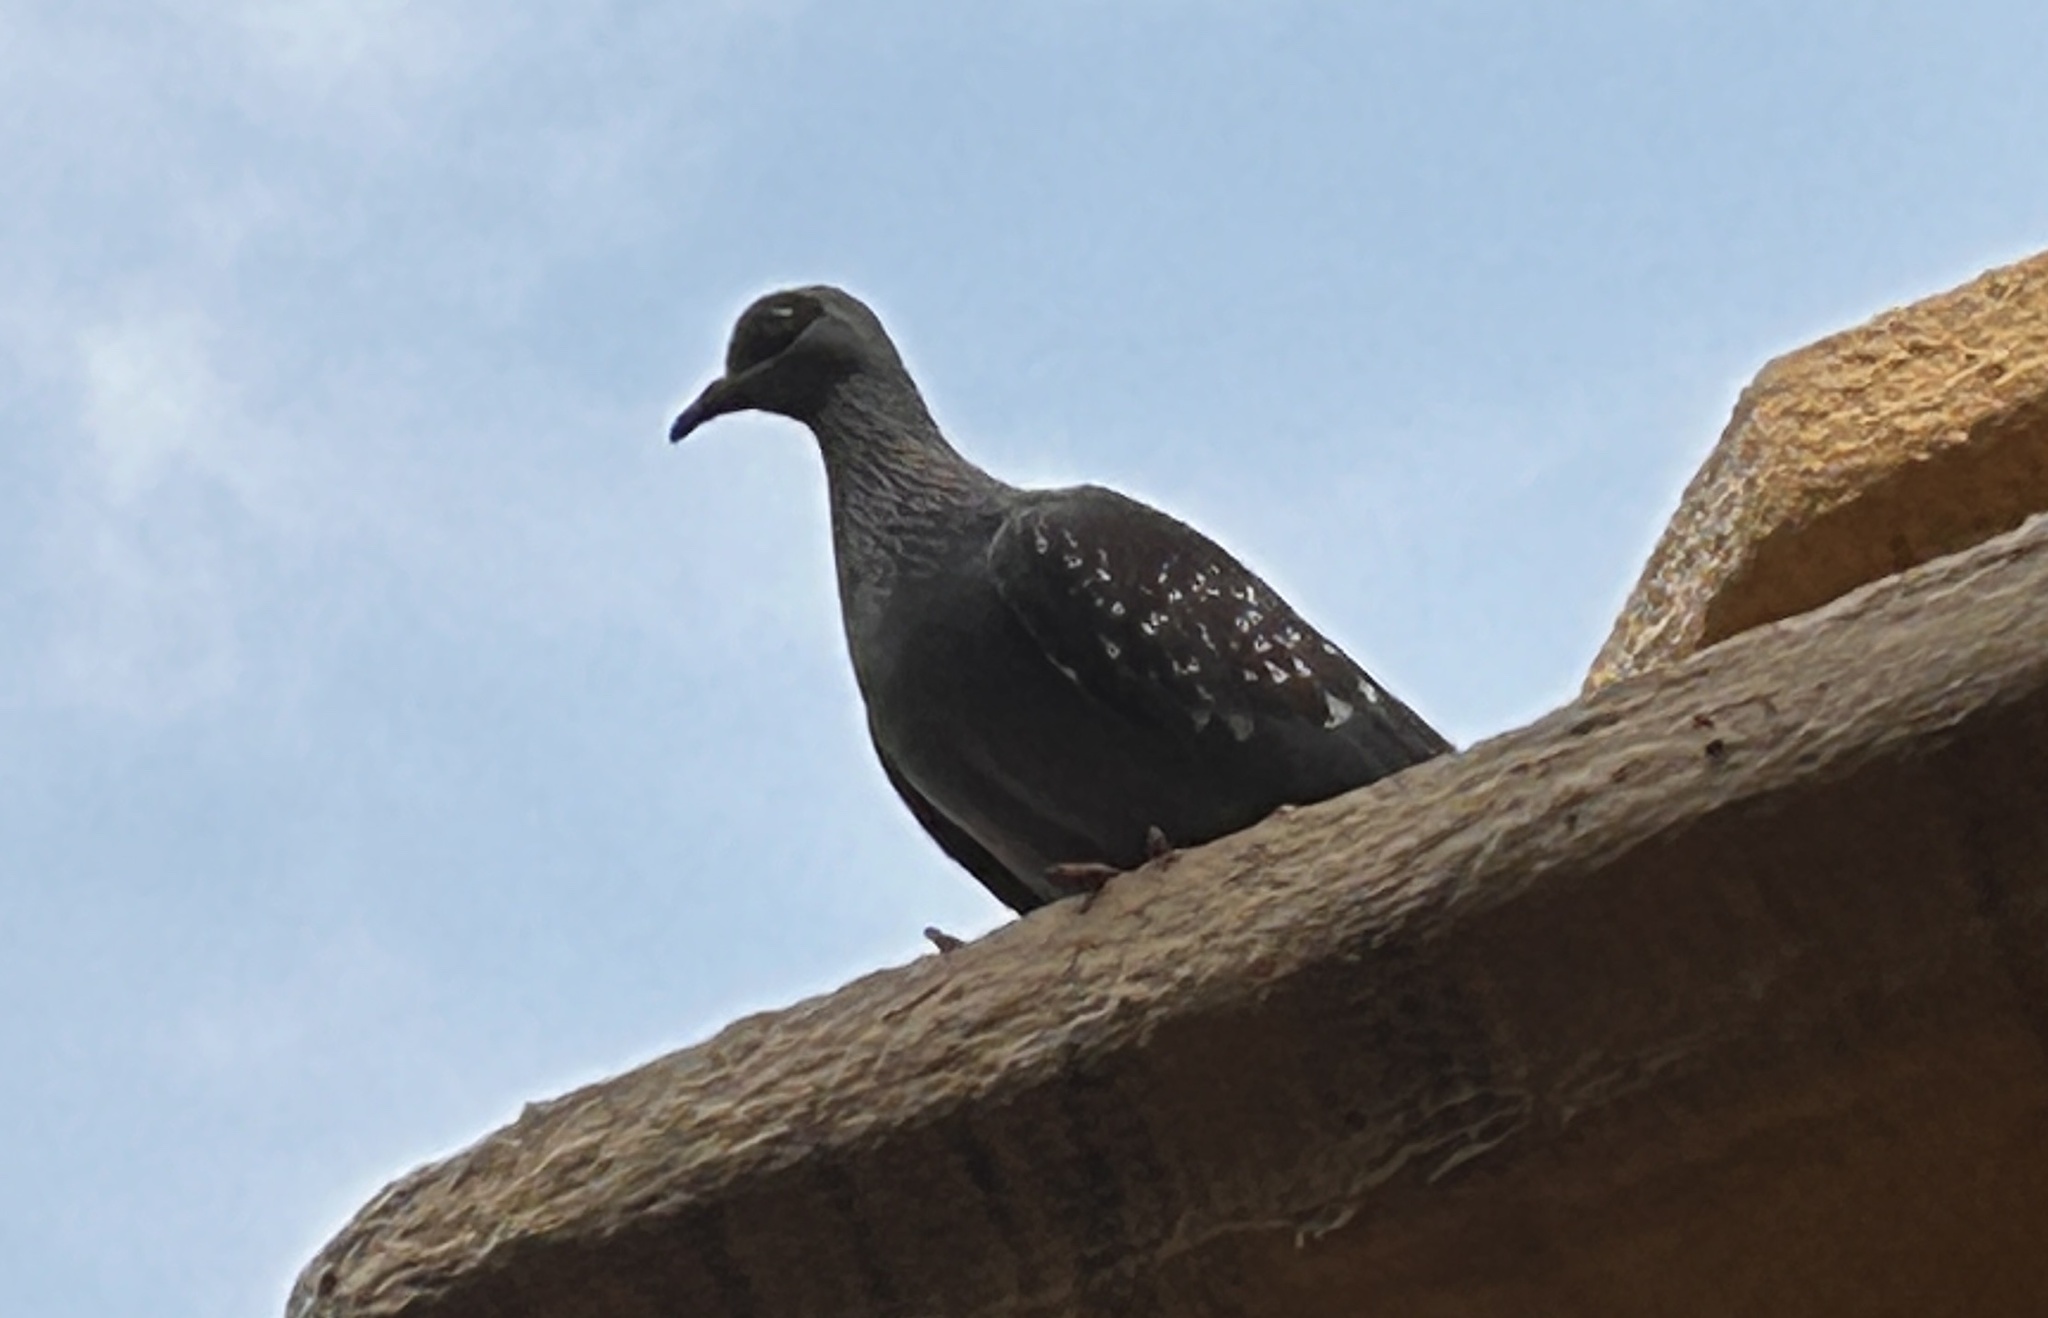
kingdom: Animalia
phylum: Chordata
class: Aves
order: Columbiformes
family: Columbidae
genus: Columba
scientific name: Columba guinea
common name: Speckled pigeon
